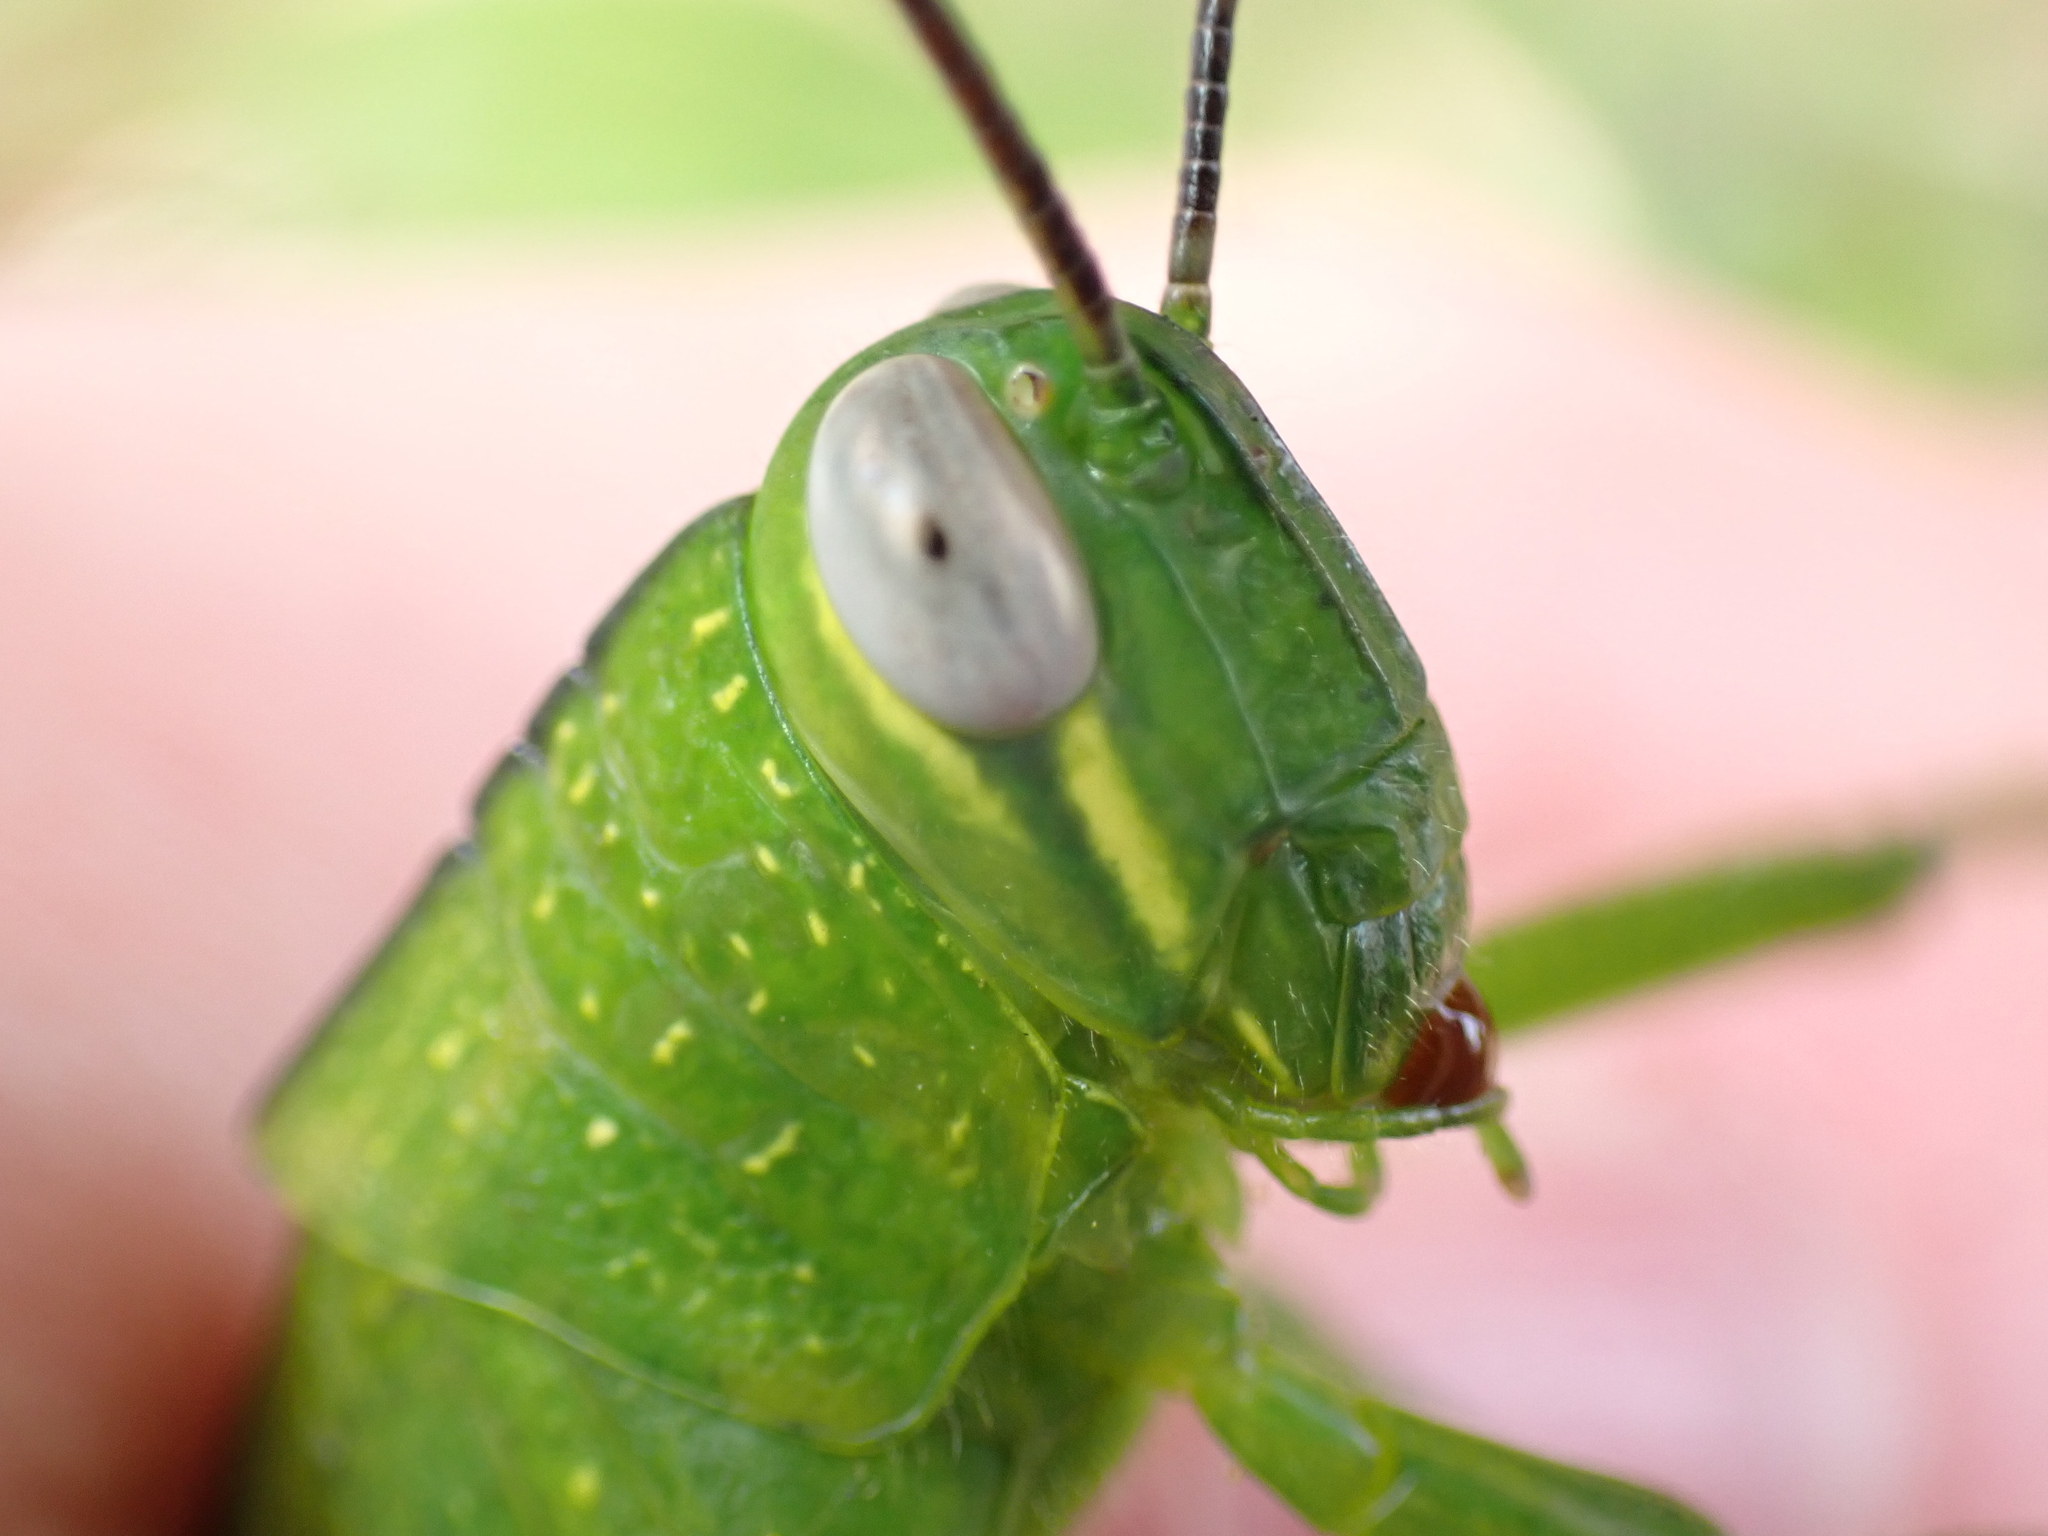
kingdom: Animalia
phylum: Arthropoda
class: Insecta
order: Orthoptera
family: Acrididae
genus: Valanga
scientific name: Valanga irregularis
